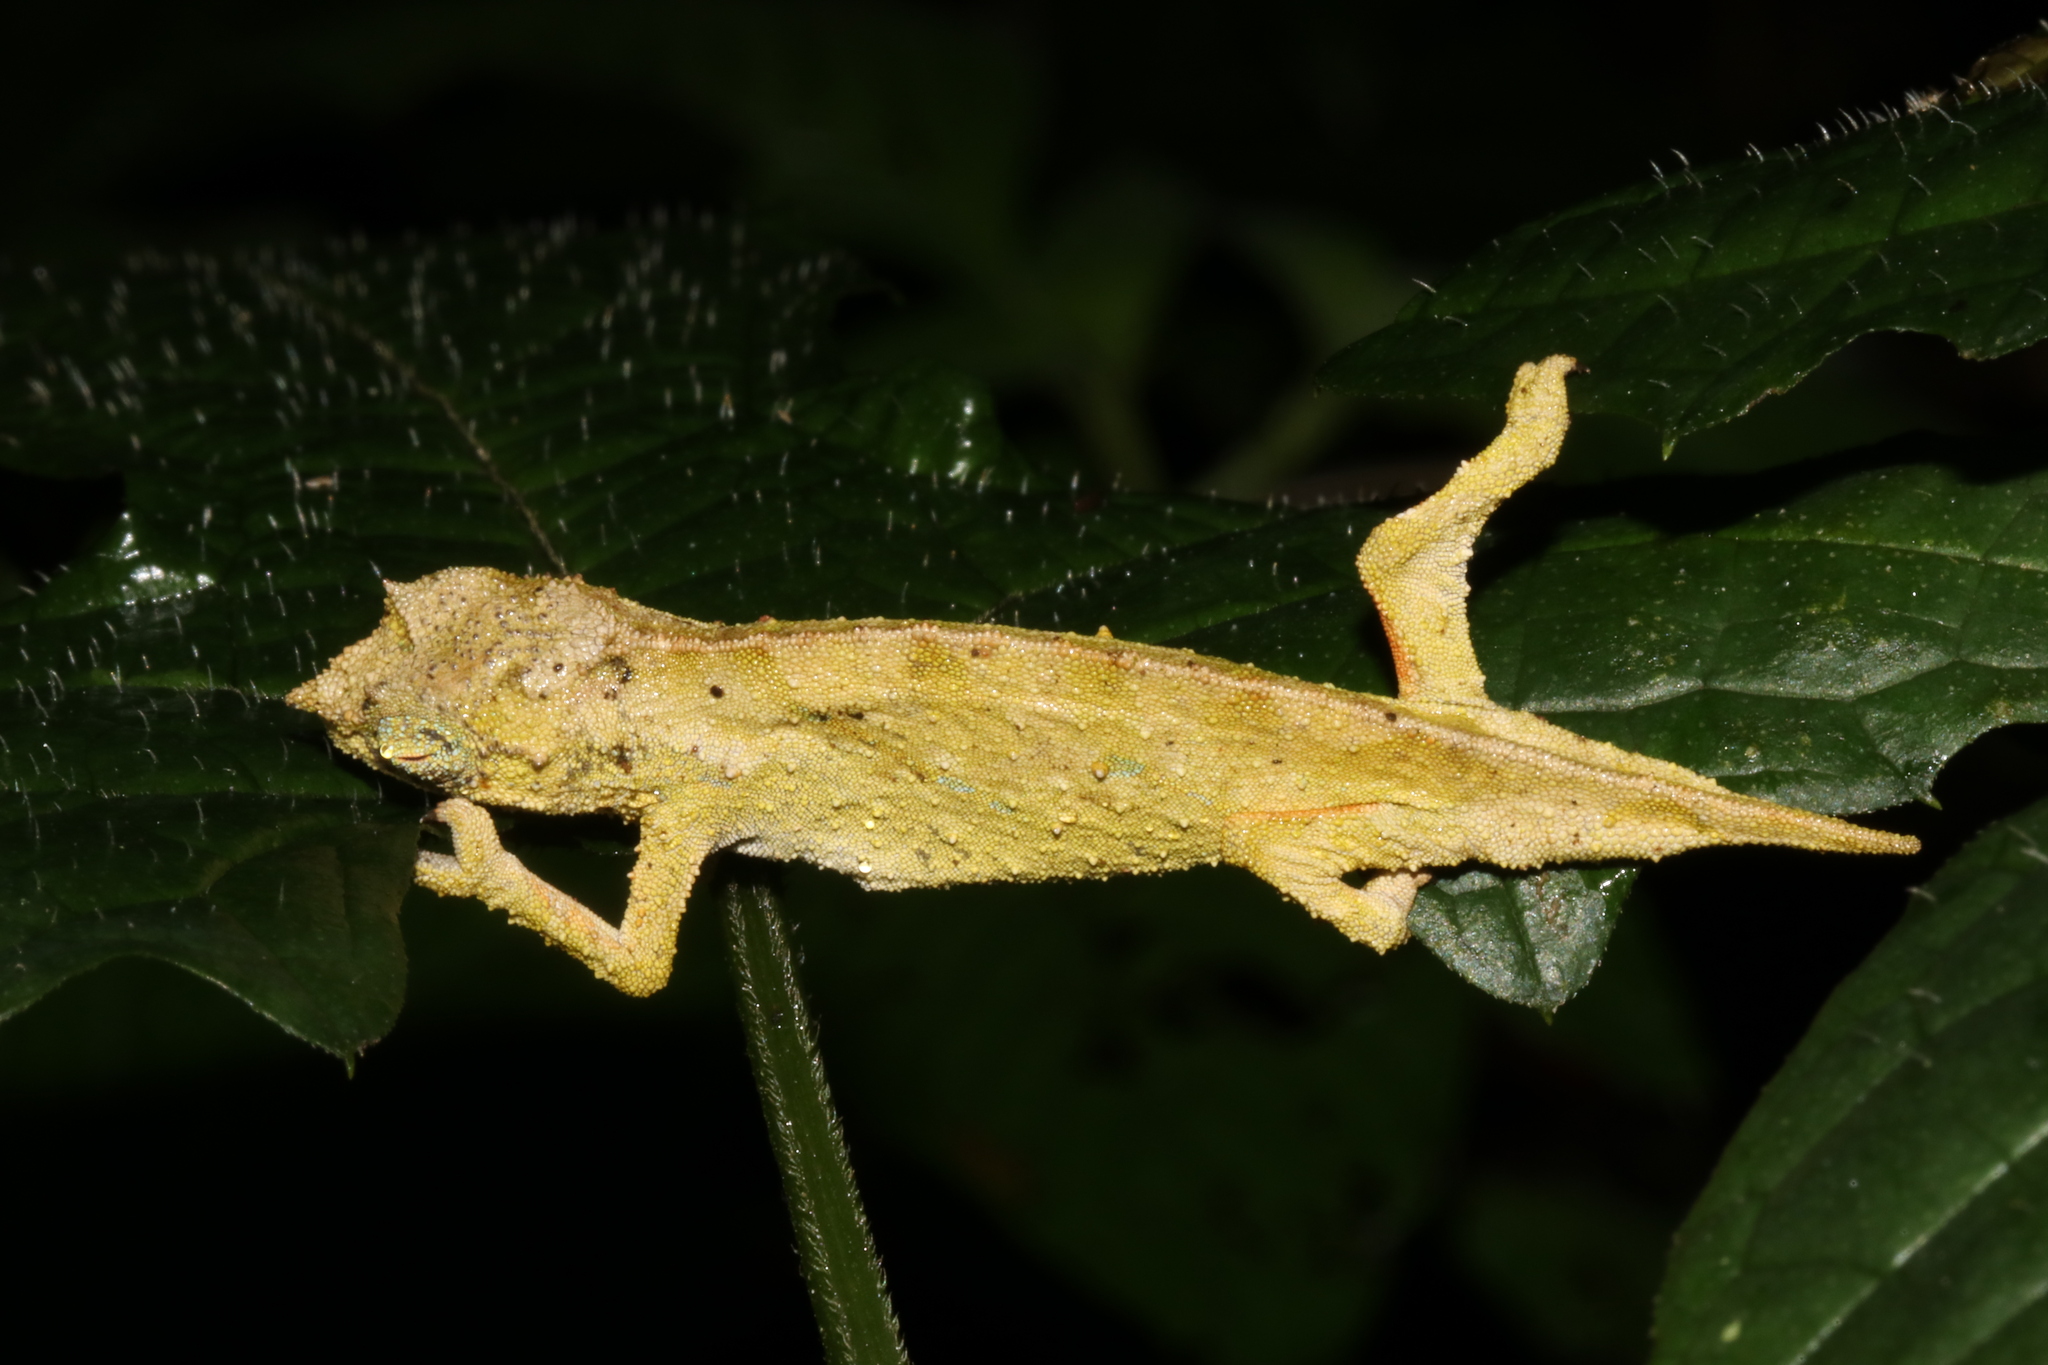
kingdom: Animalia
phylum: Chordata
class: Squamata
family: Chamaeleonidae
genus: Rhampholeon
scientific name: Rhampholeon nchisiensis
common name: South african stumptail chameleon
